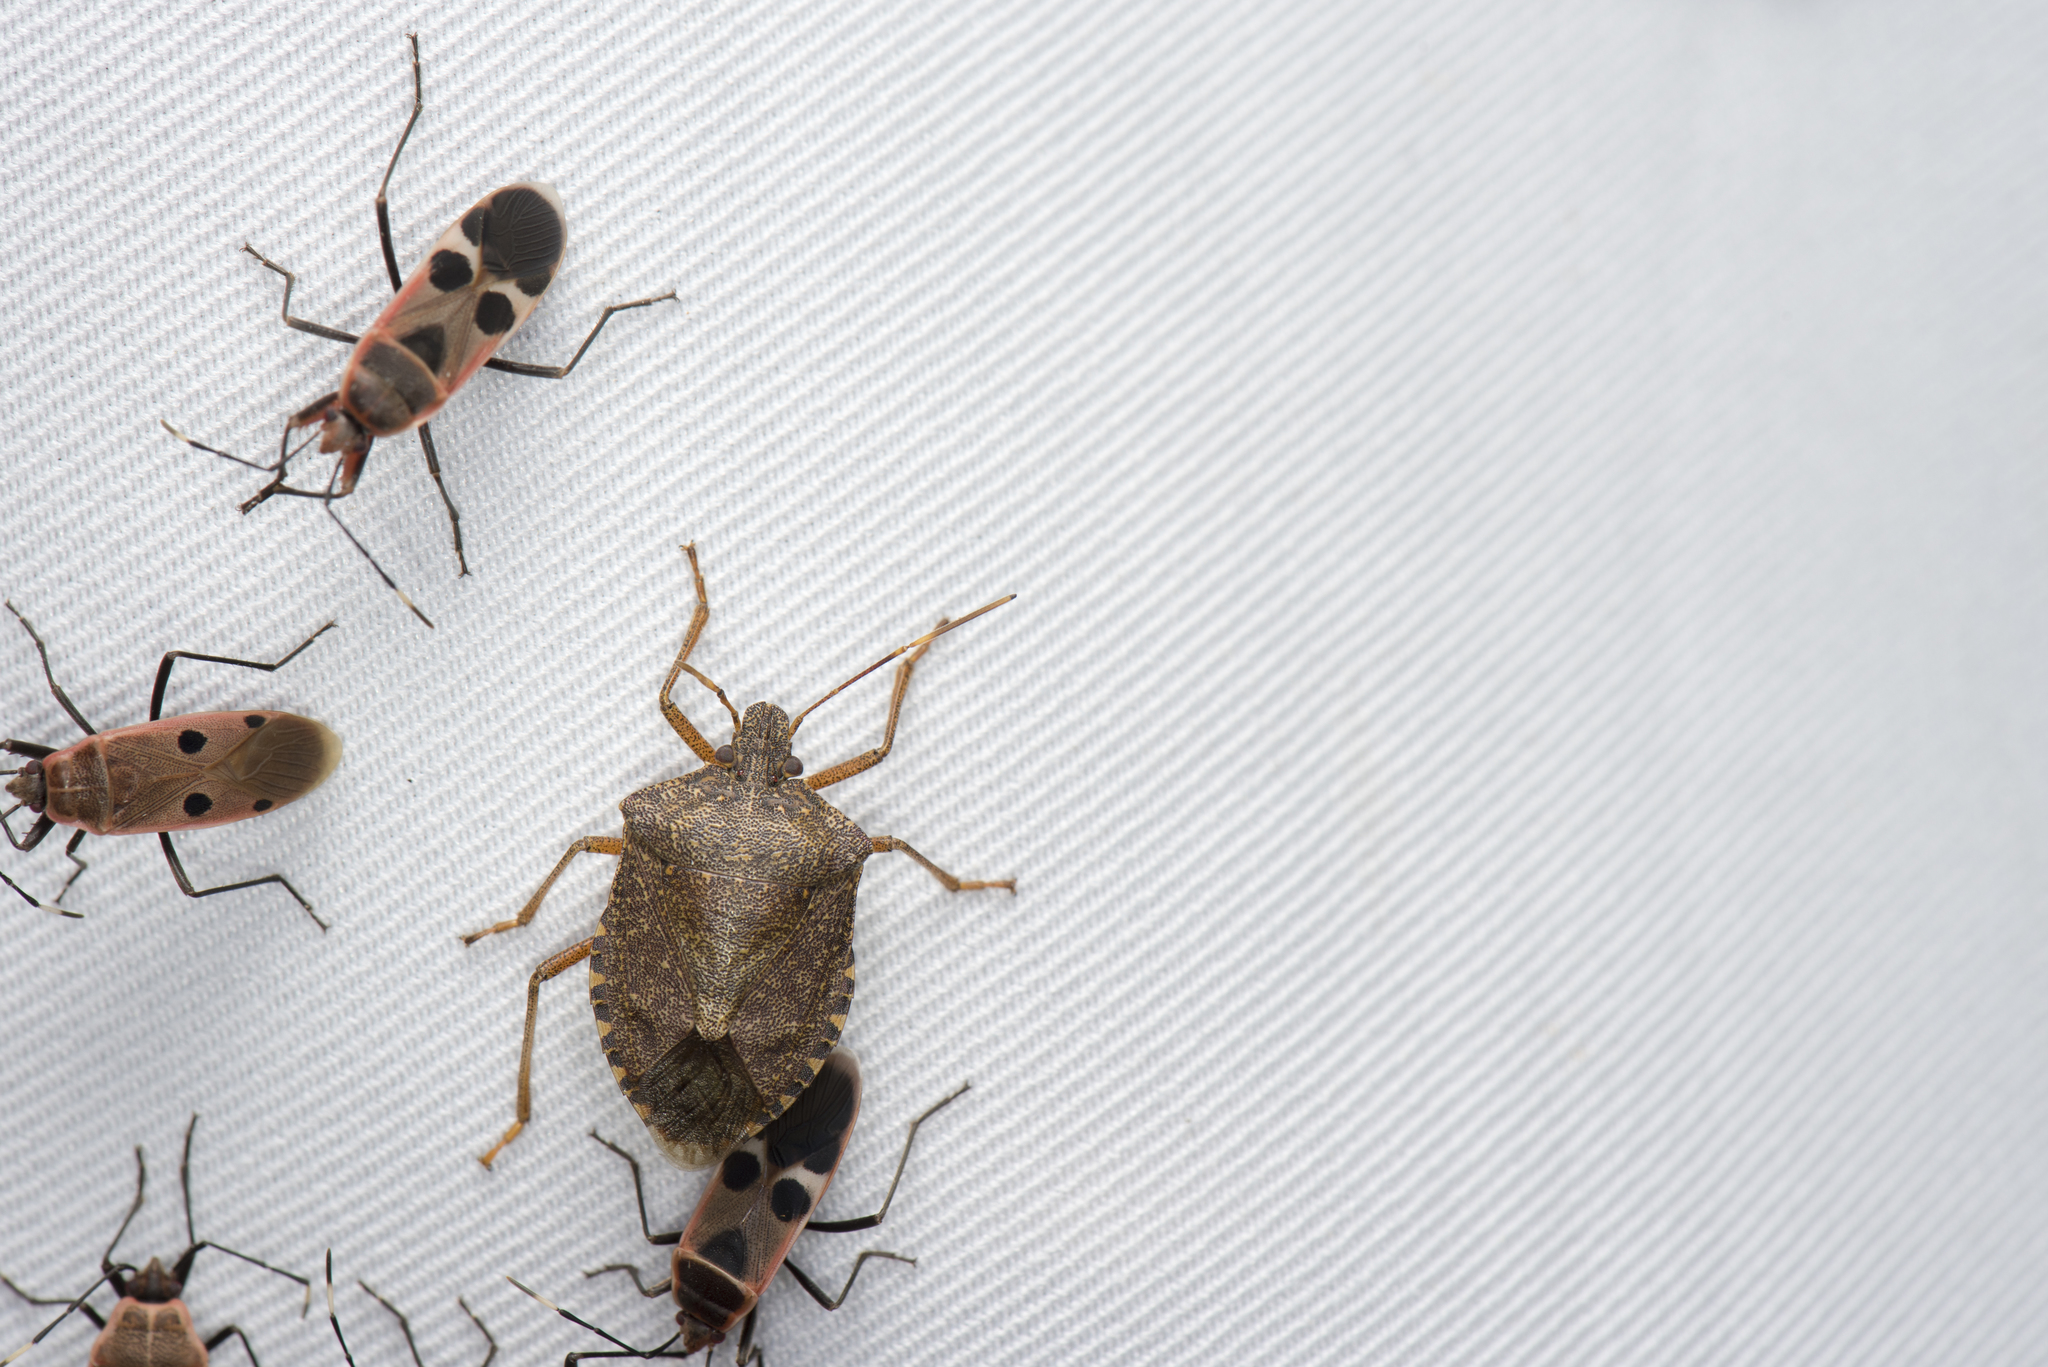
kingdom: Animalia
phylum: Arthropoda
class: Insecta
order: Hemiptera
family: Pentatomidae
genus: Halyomorpha
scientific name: Halyomorpha halys
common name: Brown marmorated stink bug
